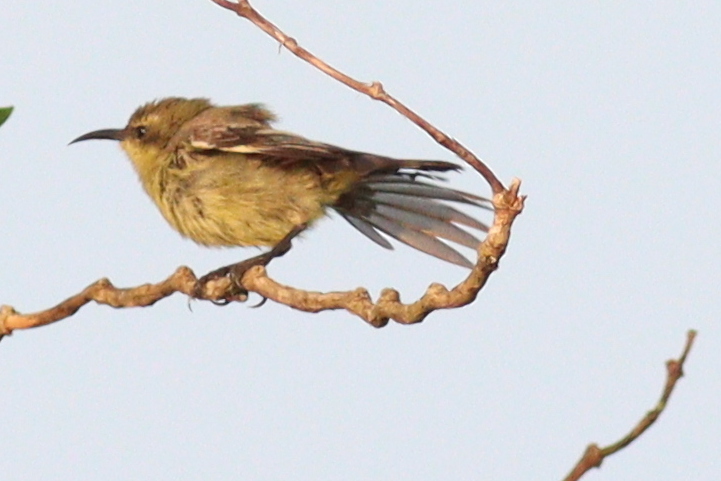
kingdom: Animalia
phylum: Chordata
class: Aves
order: Passeriformes
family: Nectariniidae
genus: Cinnyris
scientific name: Cinnyris cupreus
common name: Copper sunbird
